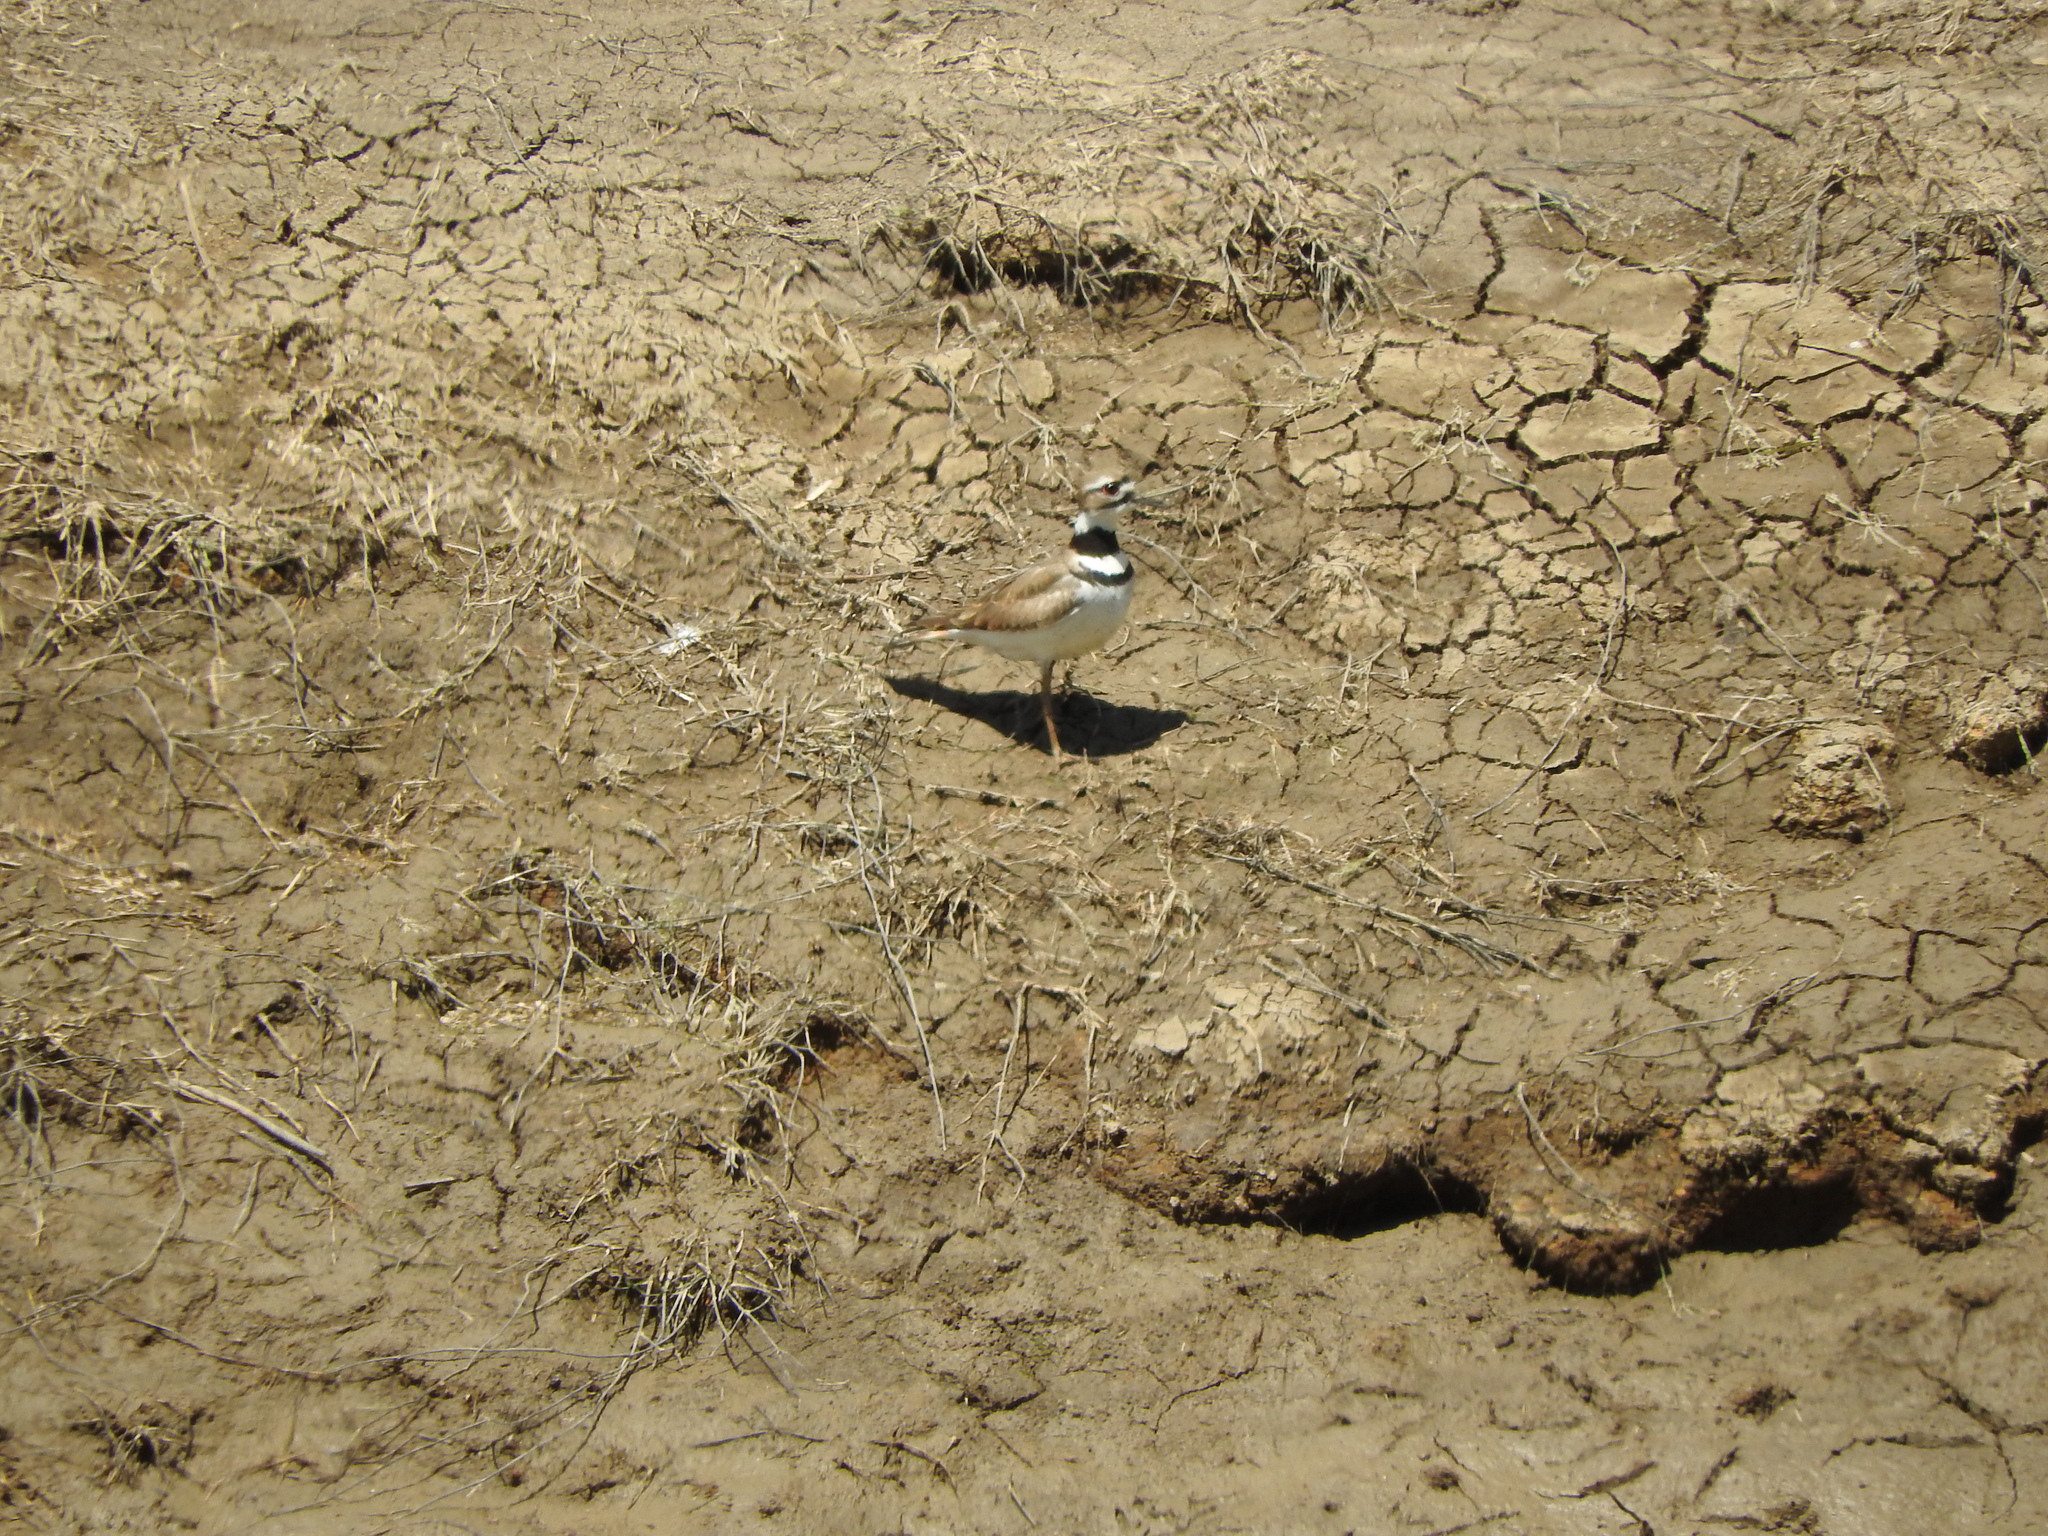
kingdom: Animalia
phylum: Chordata
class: Aves
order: Charadriiformes
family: Charadriidae
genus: Charadrius
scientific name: Charadrius vociferus
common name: Killdeer
